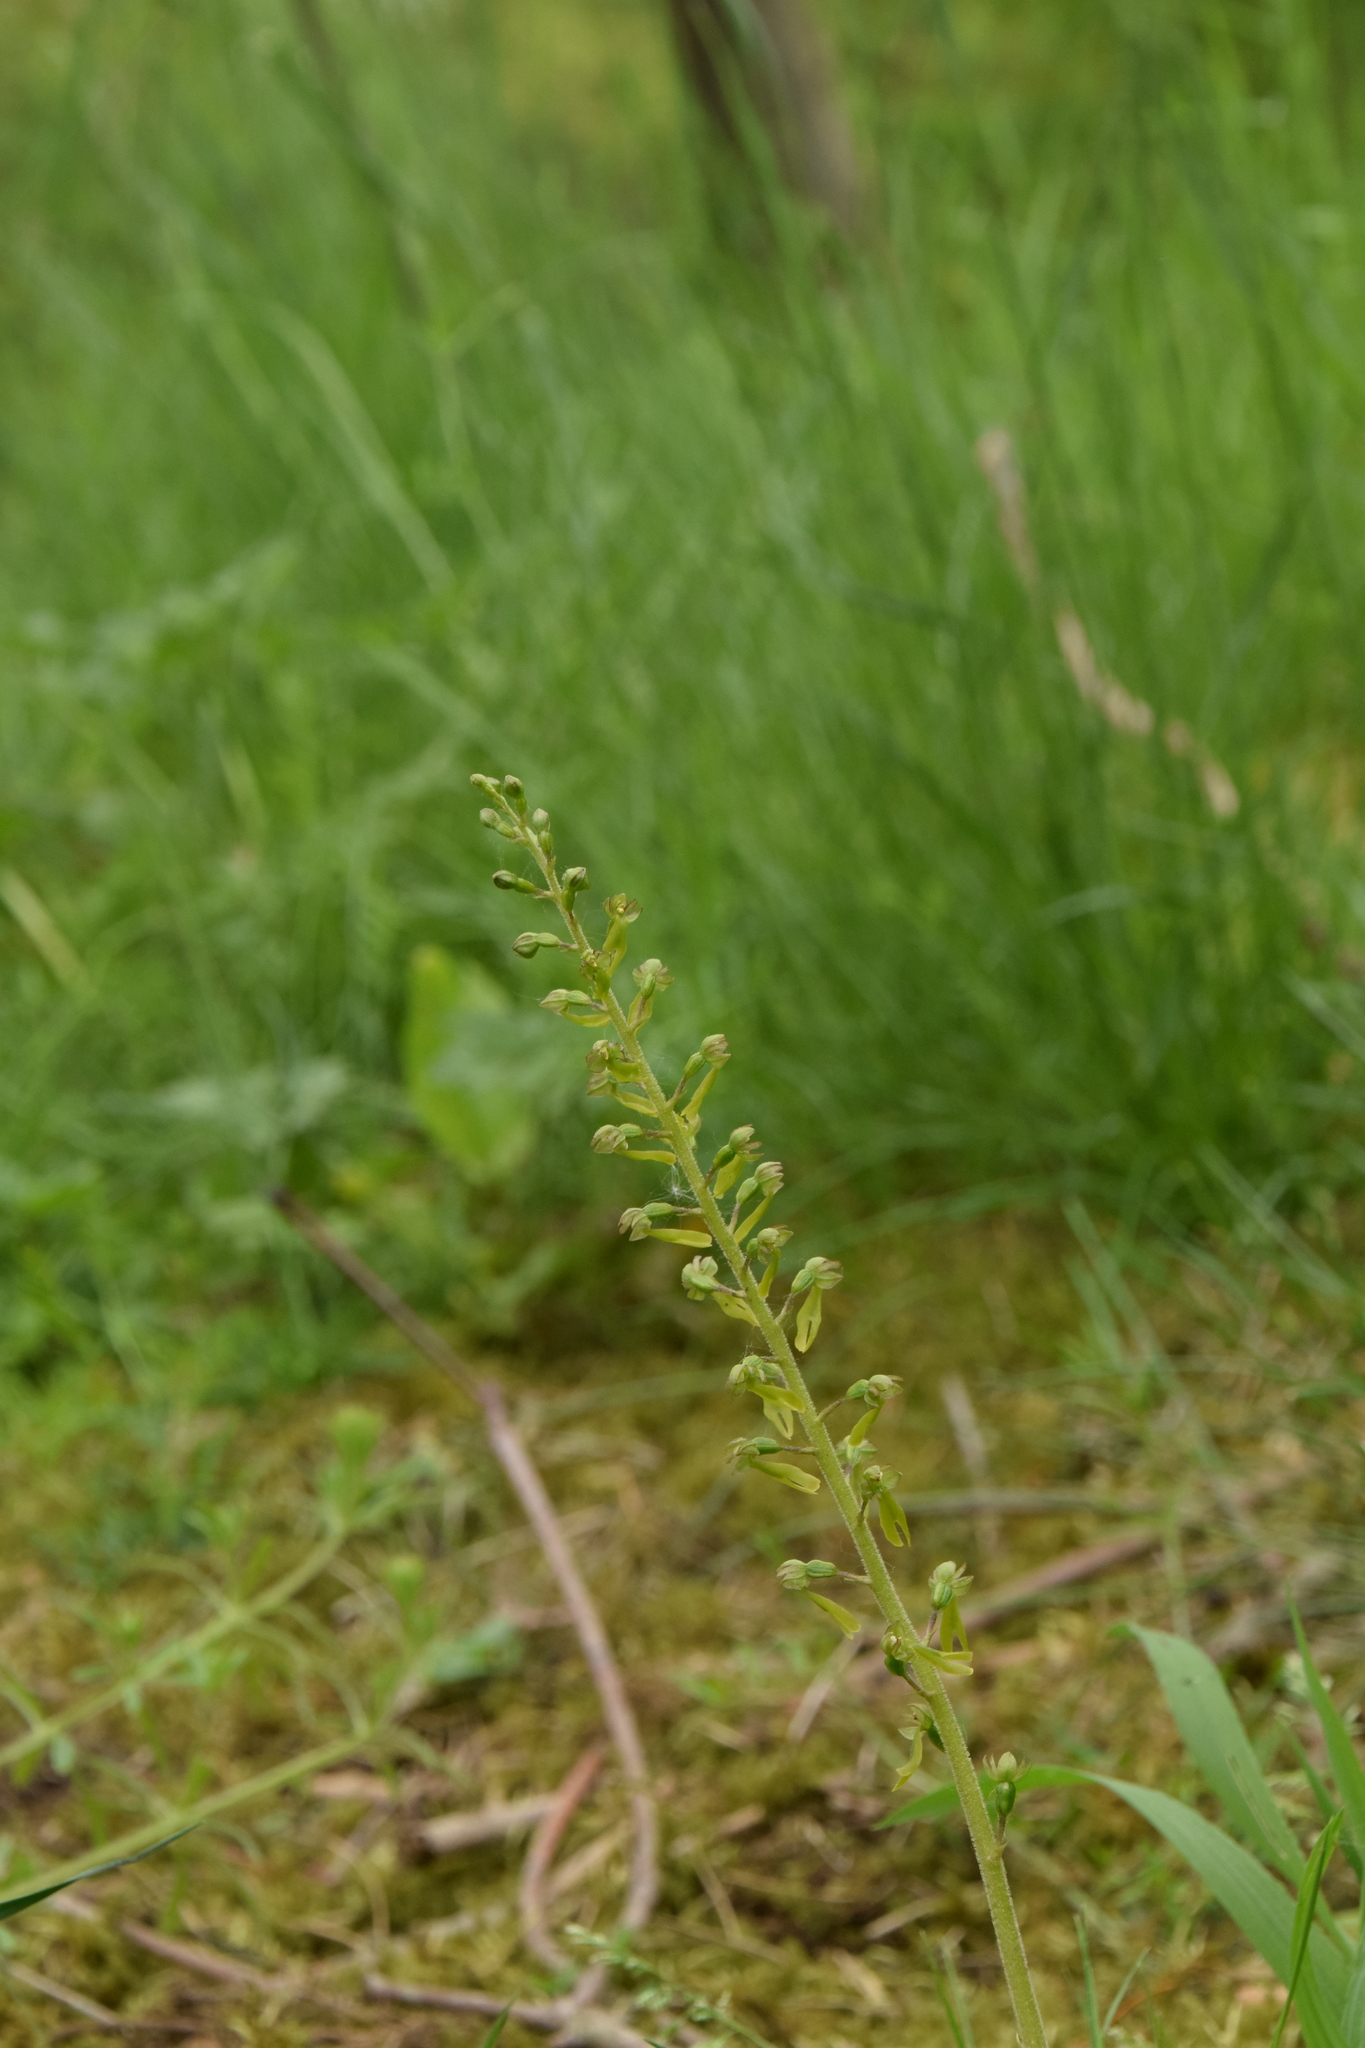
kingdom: Plantae
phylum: Tracheophyta
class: Liliopsida
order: Asparagales
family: Orchidaceae
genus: Neottia
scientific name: Neottia ovata
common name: Common twayblade
